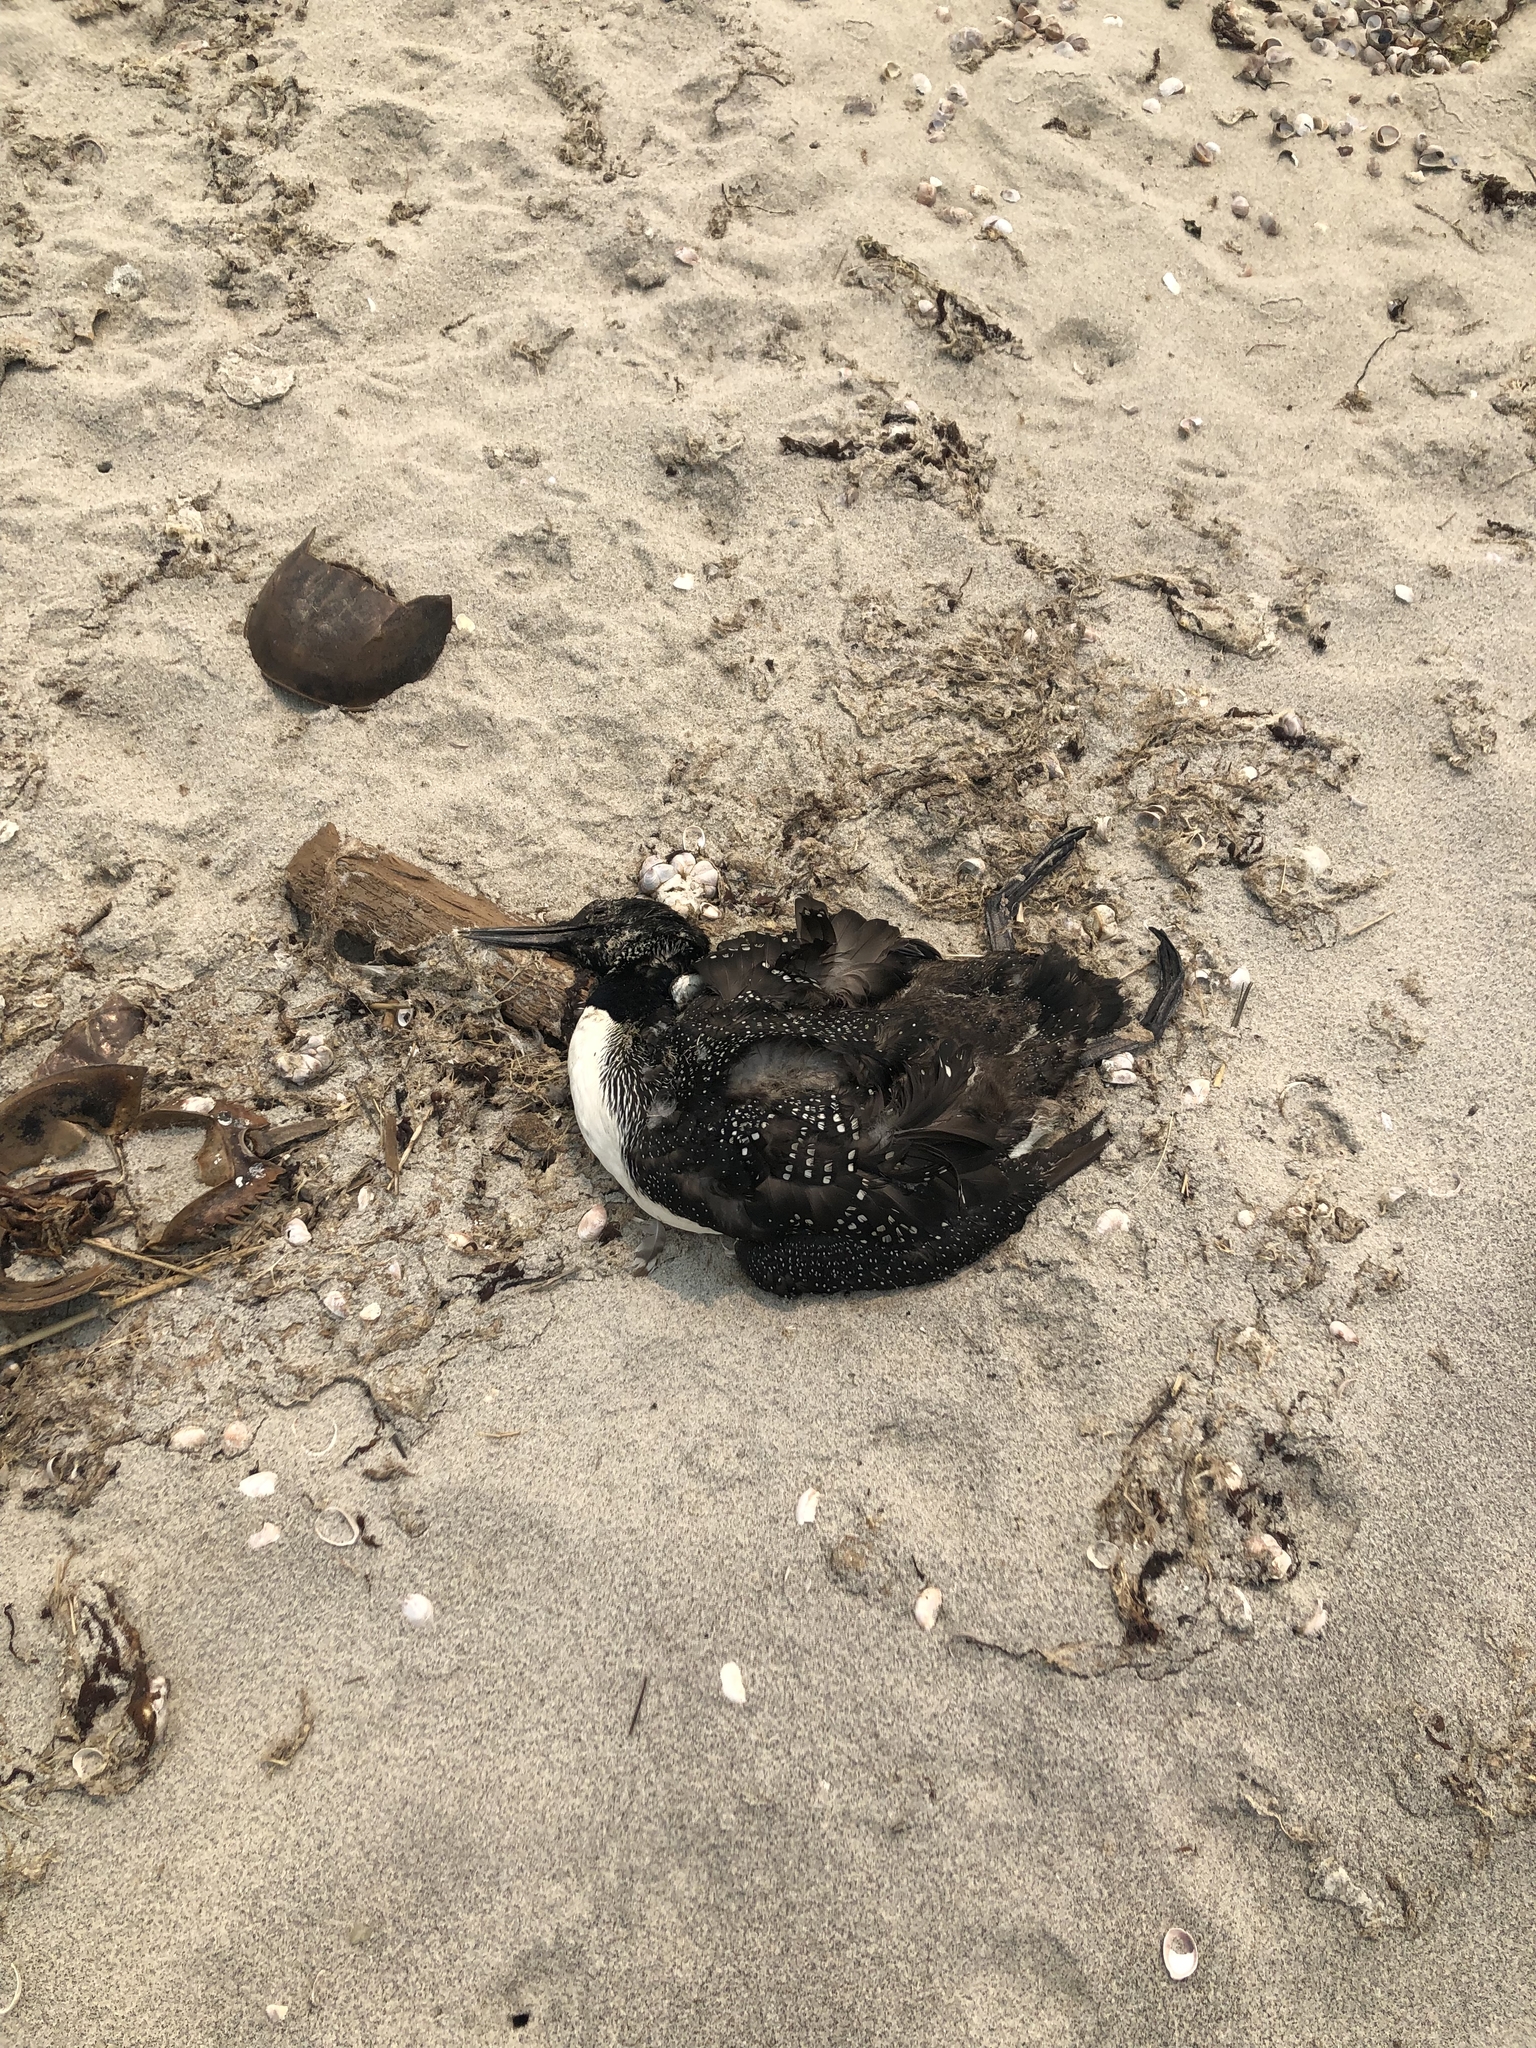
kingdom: Animalia
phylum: Chordata
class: Aves
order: Gaviiformes
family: Gaviidae
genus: Gavia
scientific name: Gavia immer
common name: Common loon
